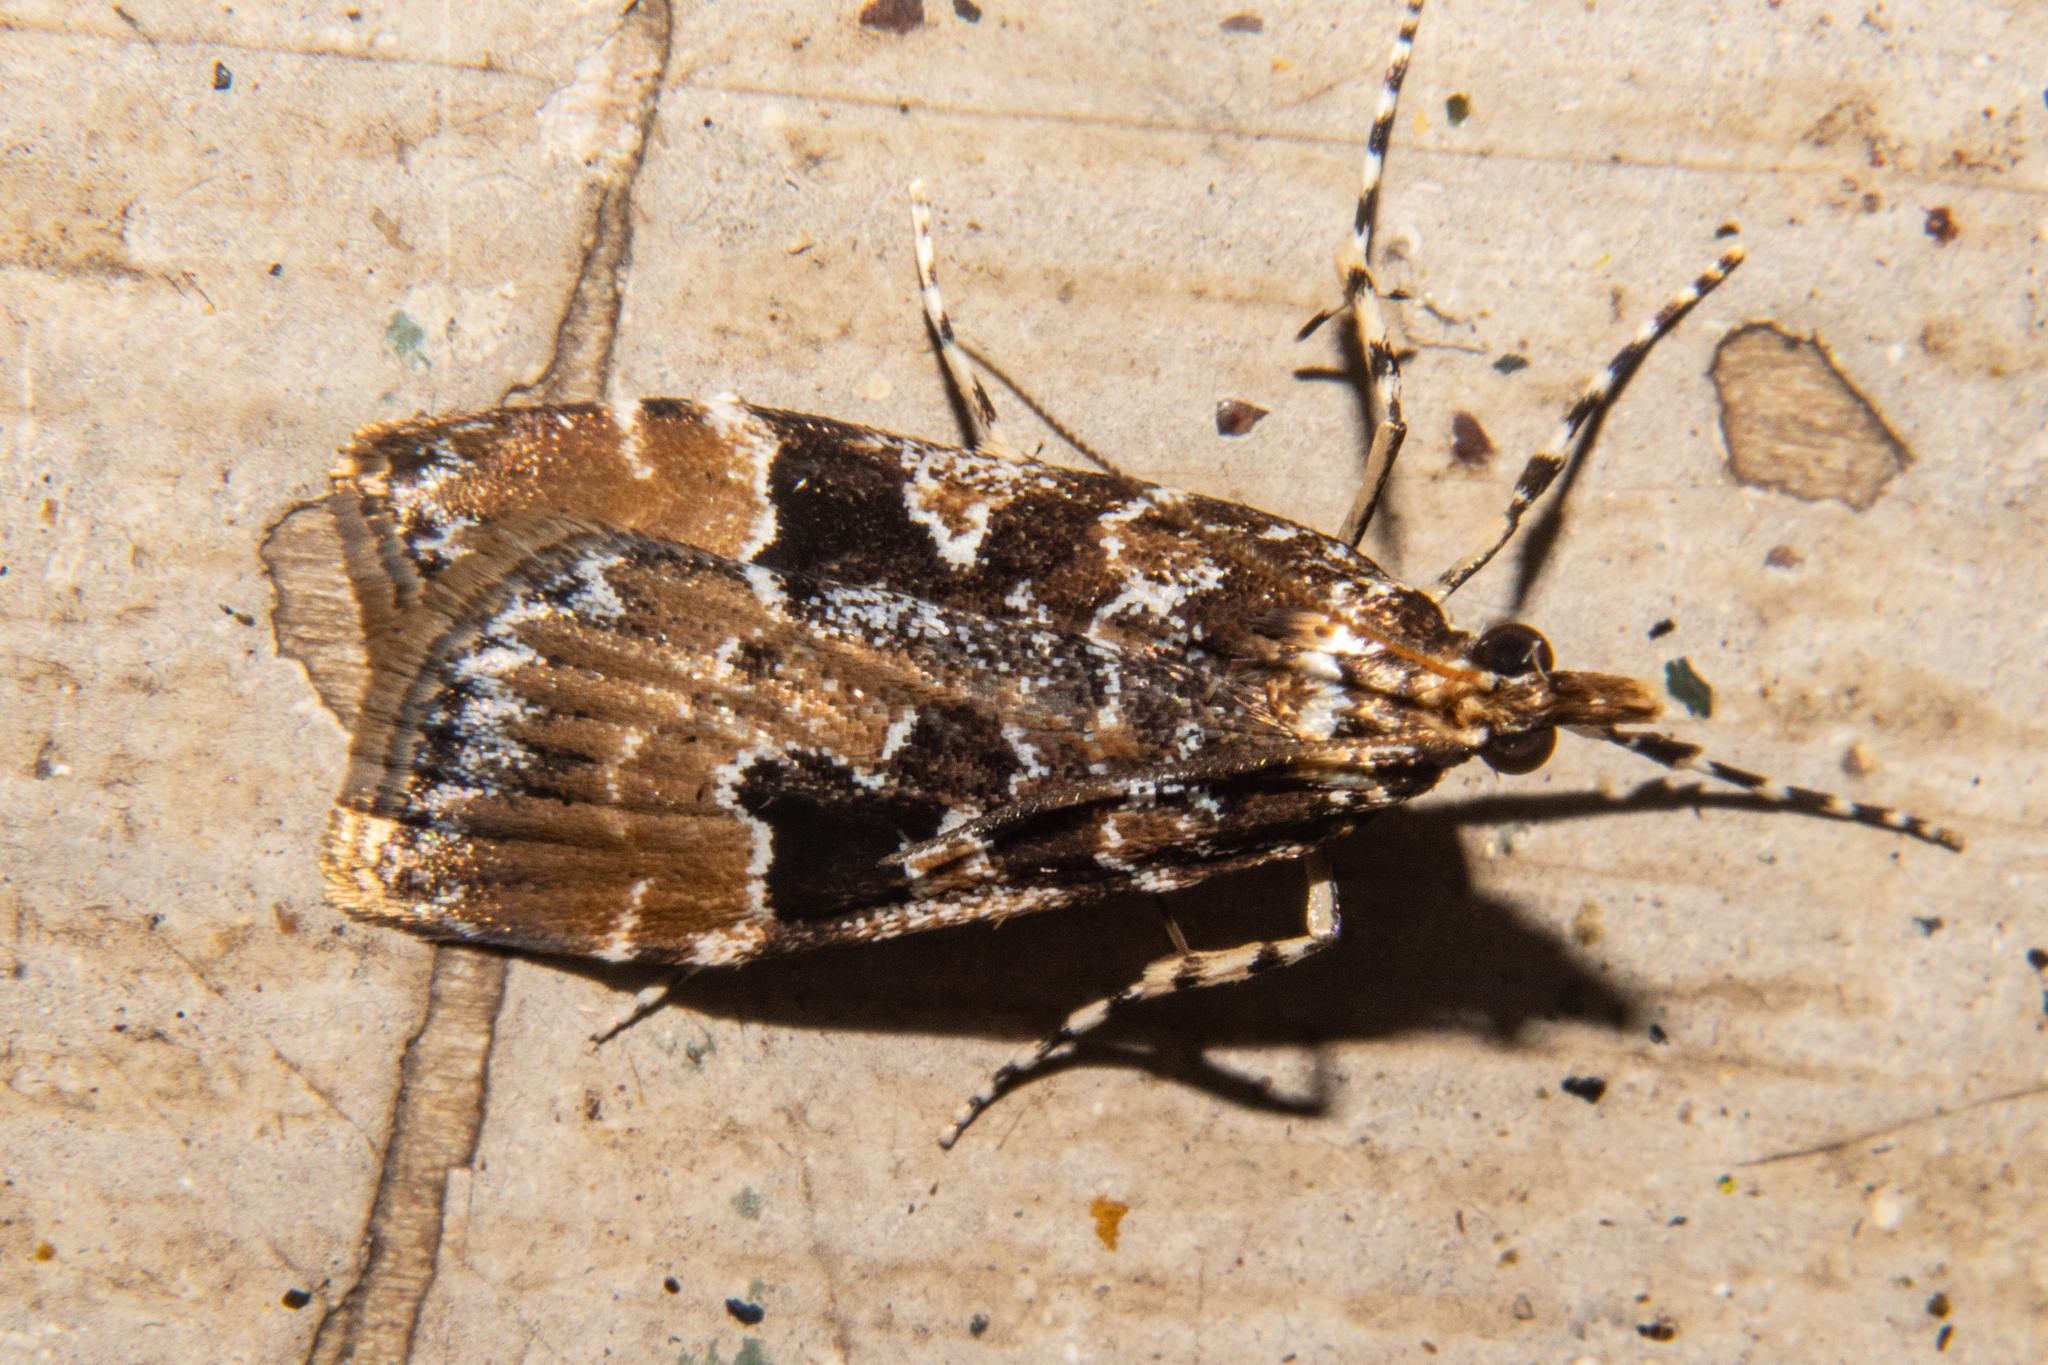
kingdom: Animalia
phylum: Arthropoda
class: Insecta
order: Lepidoptera
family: Crambidae
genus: Scoparia
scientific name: Scoparia ustimacula
